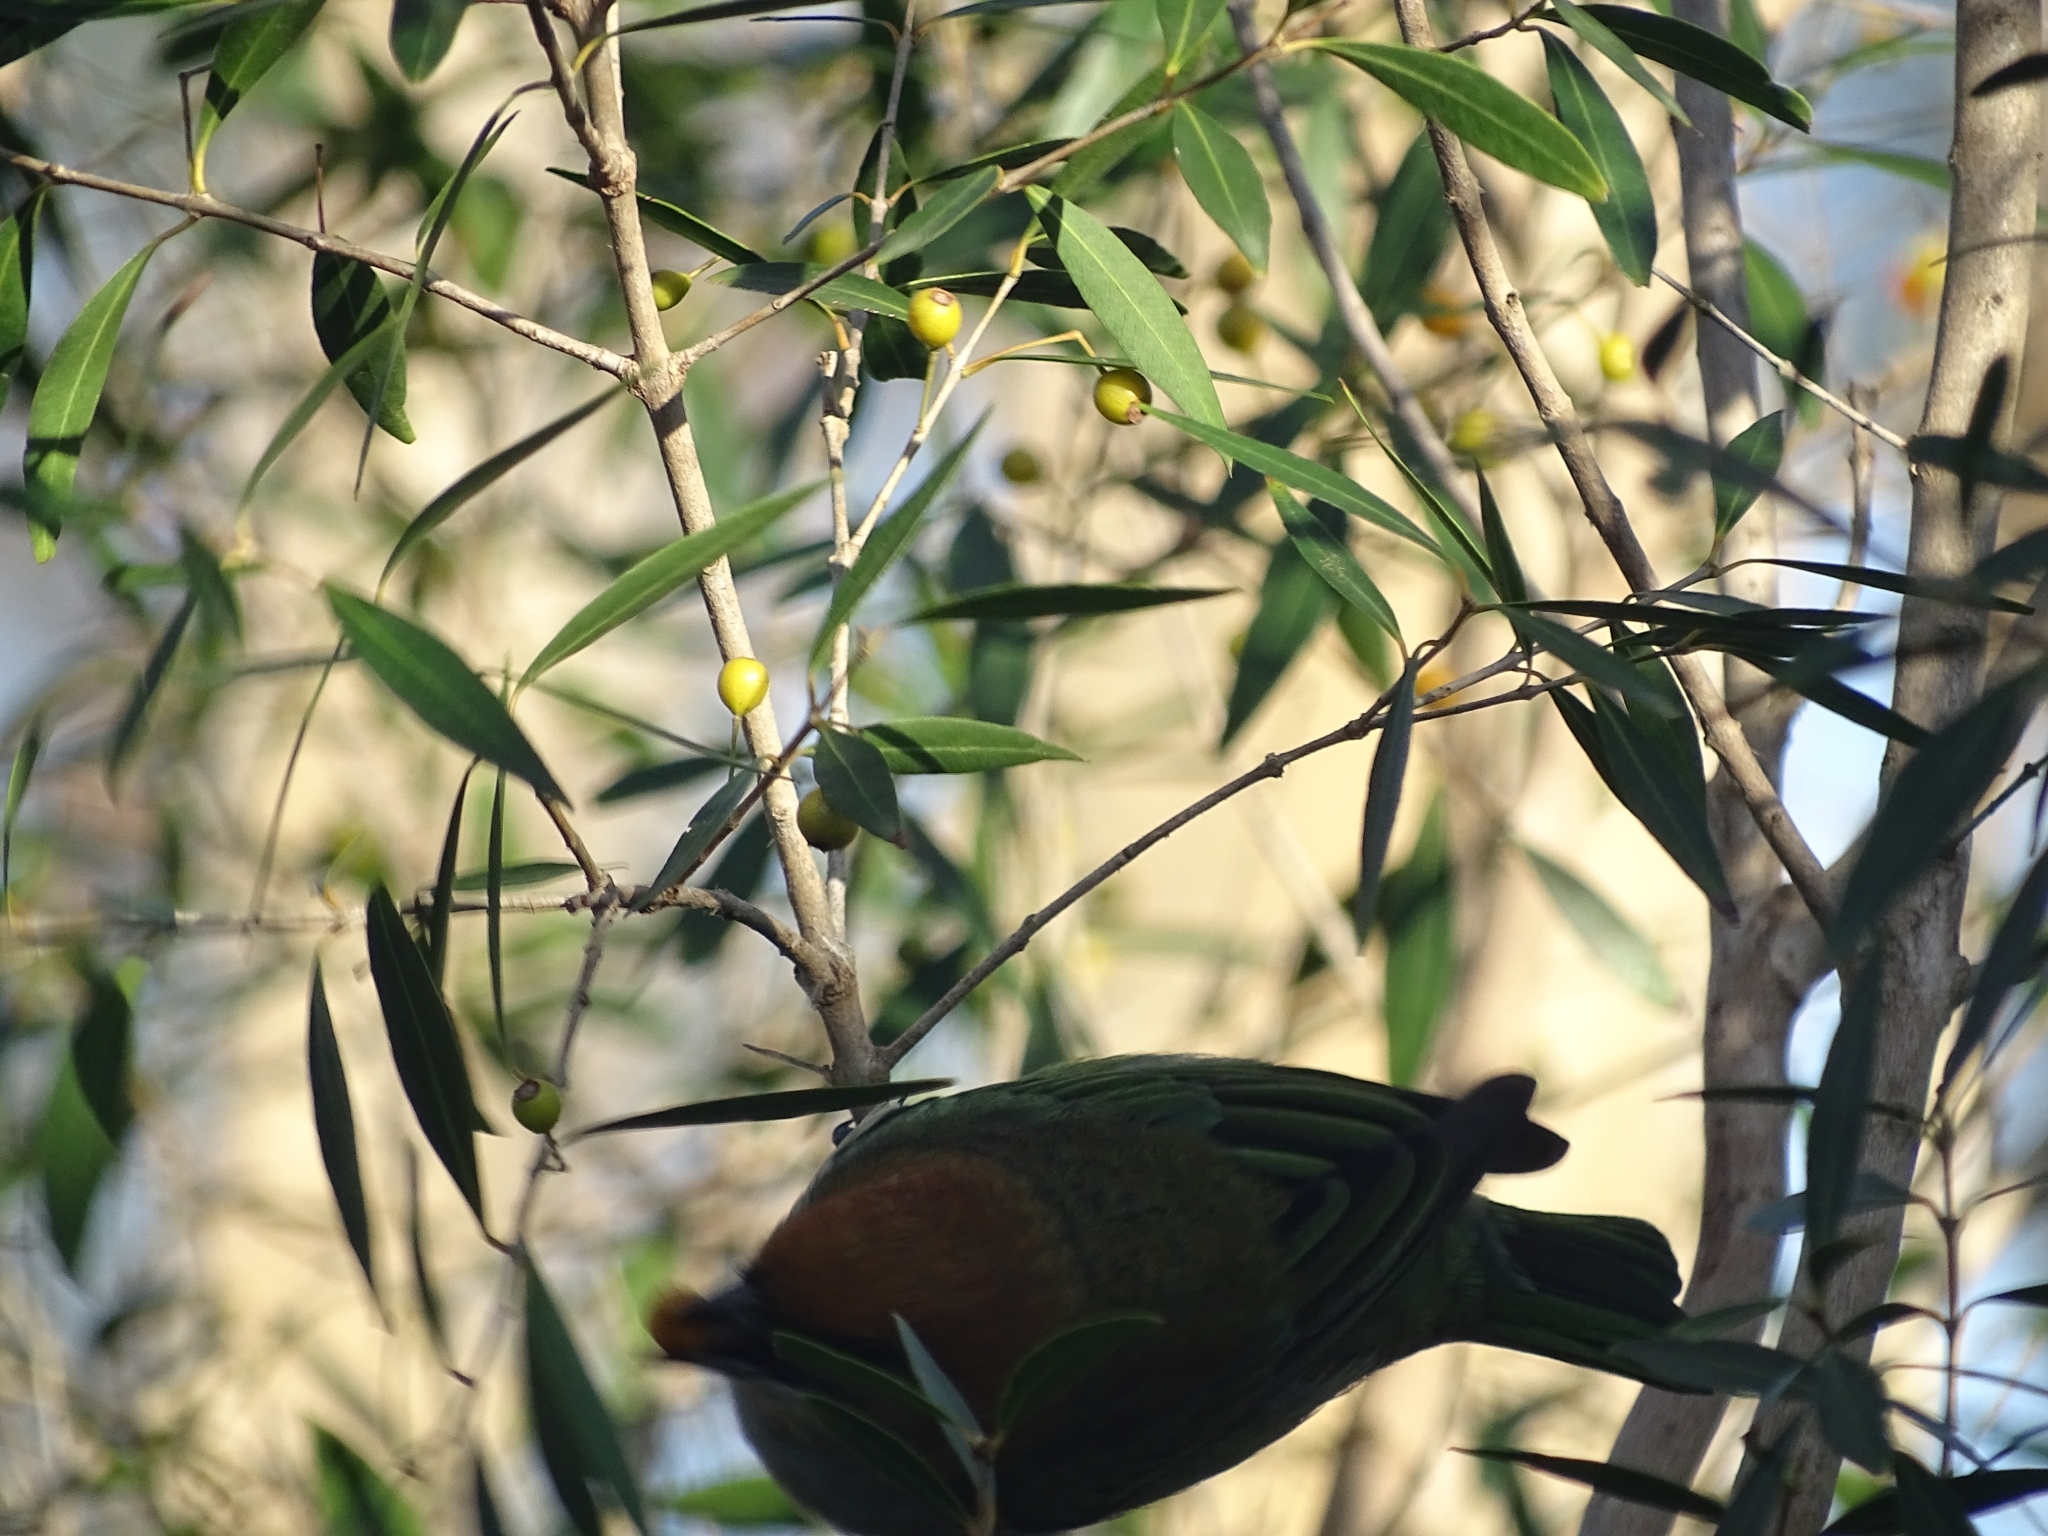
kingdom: Animalia
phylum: Chordata
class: Aves
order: Passeriformes
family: Thraupidae
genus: Stilpnia
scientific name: Stilpnia preciosa
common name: Chestnut-backed tanager
